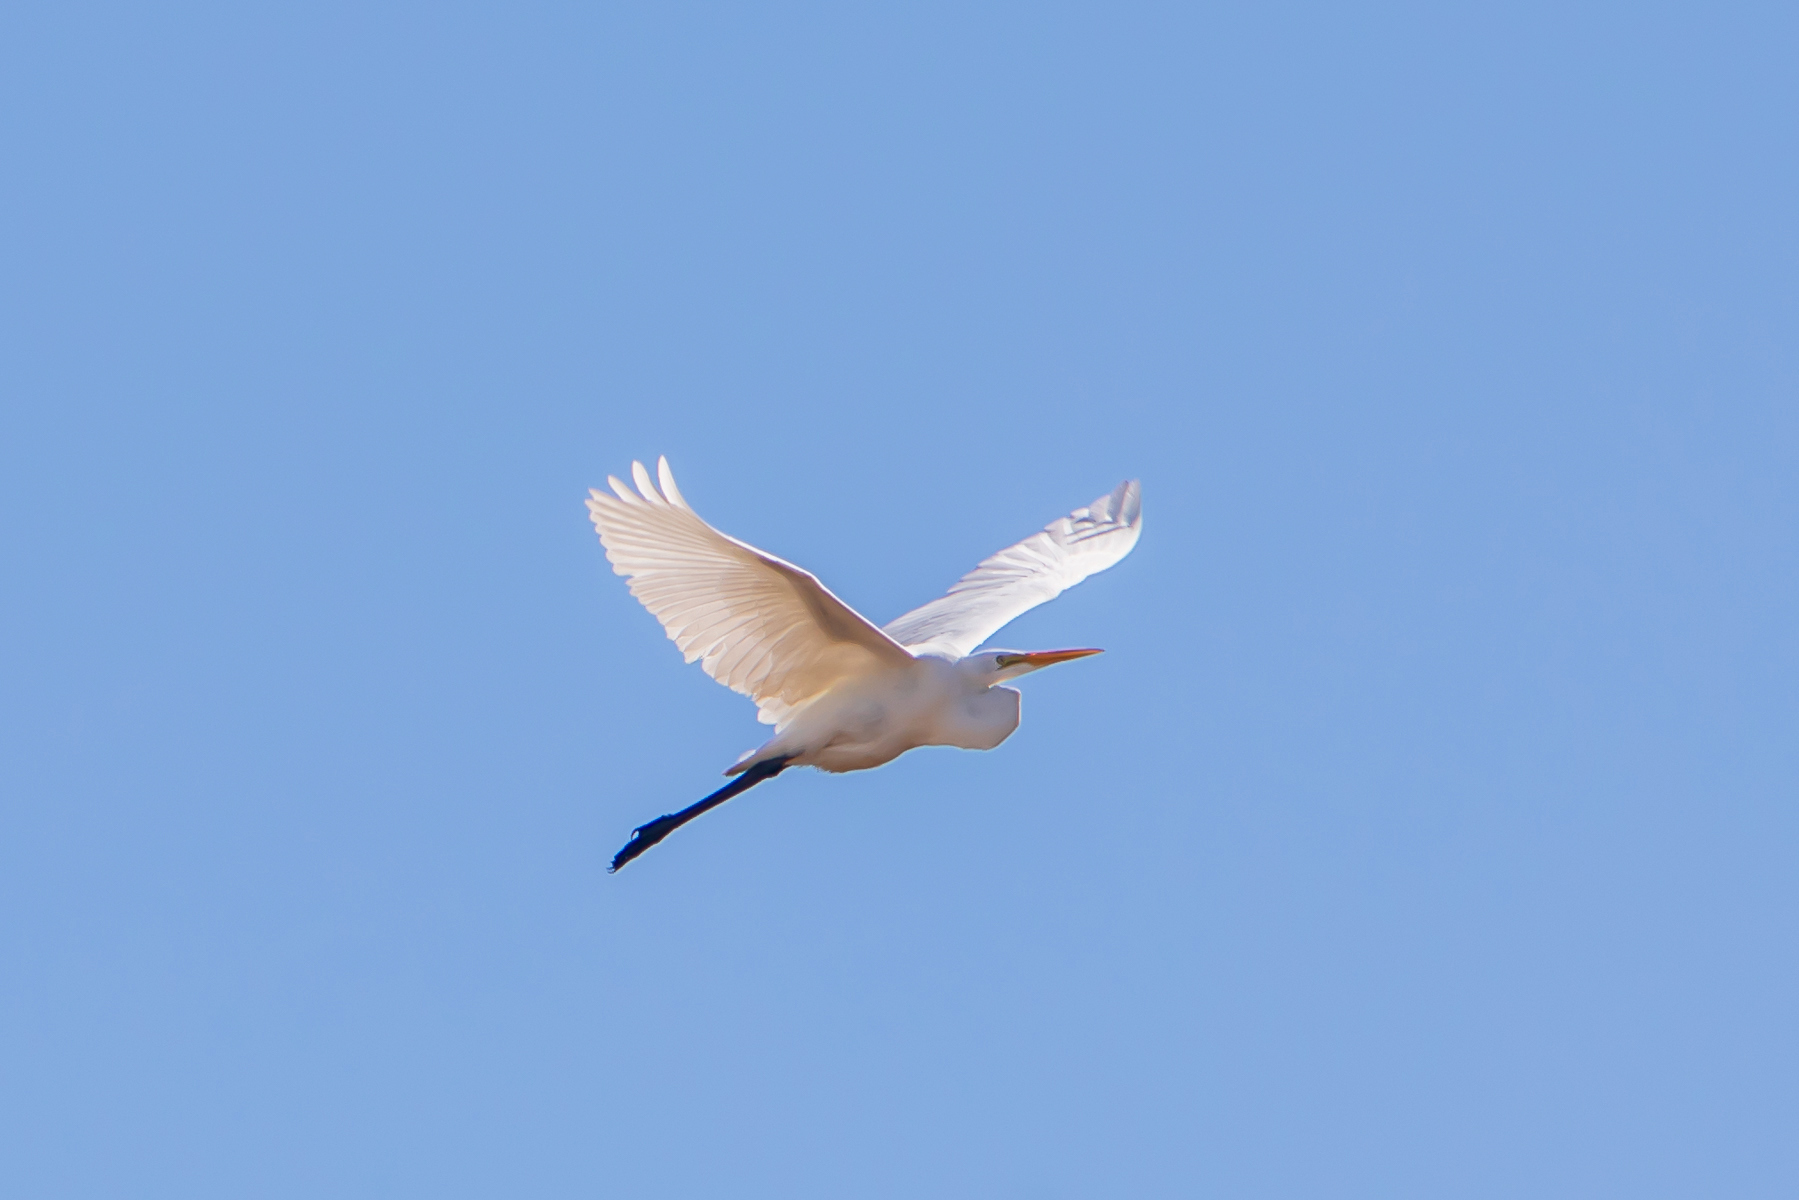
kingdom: Animalia
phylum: Chordata
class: Aves
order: Pelecaniformes
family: Ardeidae
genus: Ardea
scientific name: Ardea alba
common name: Great egret
